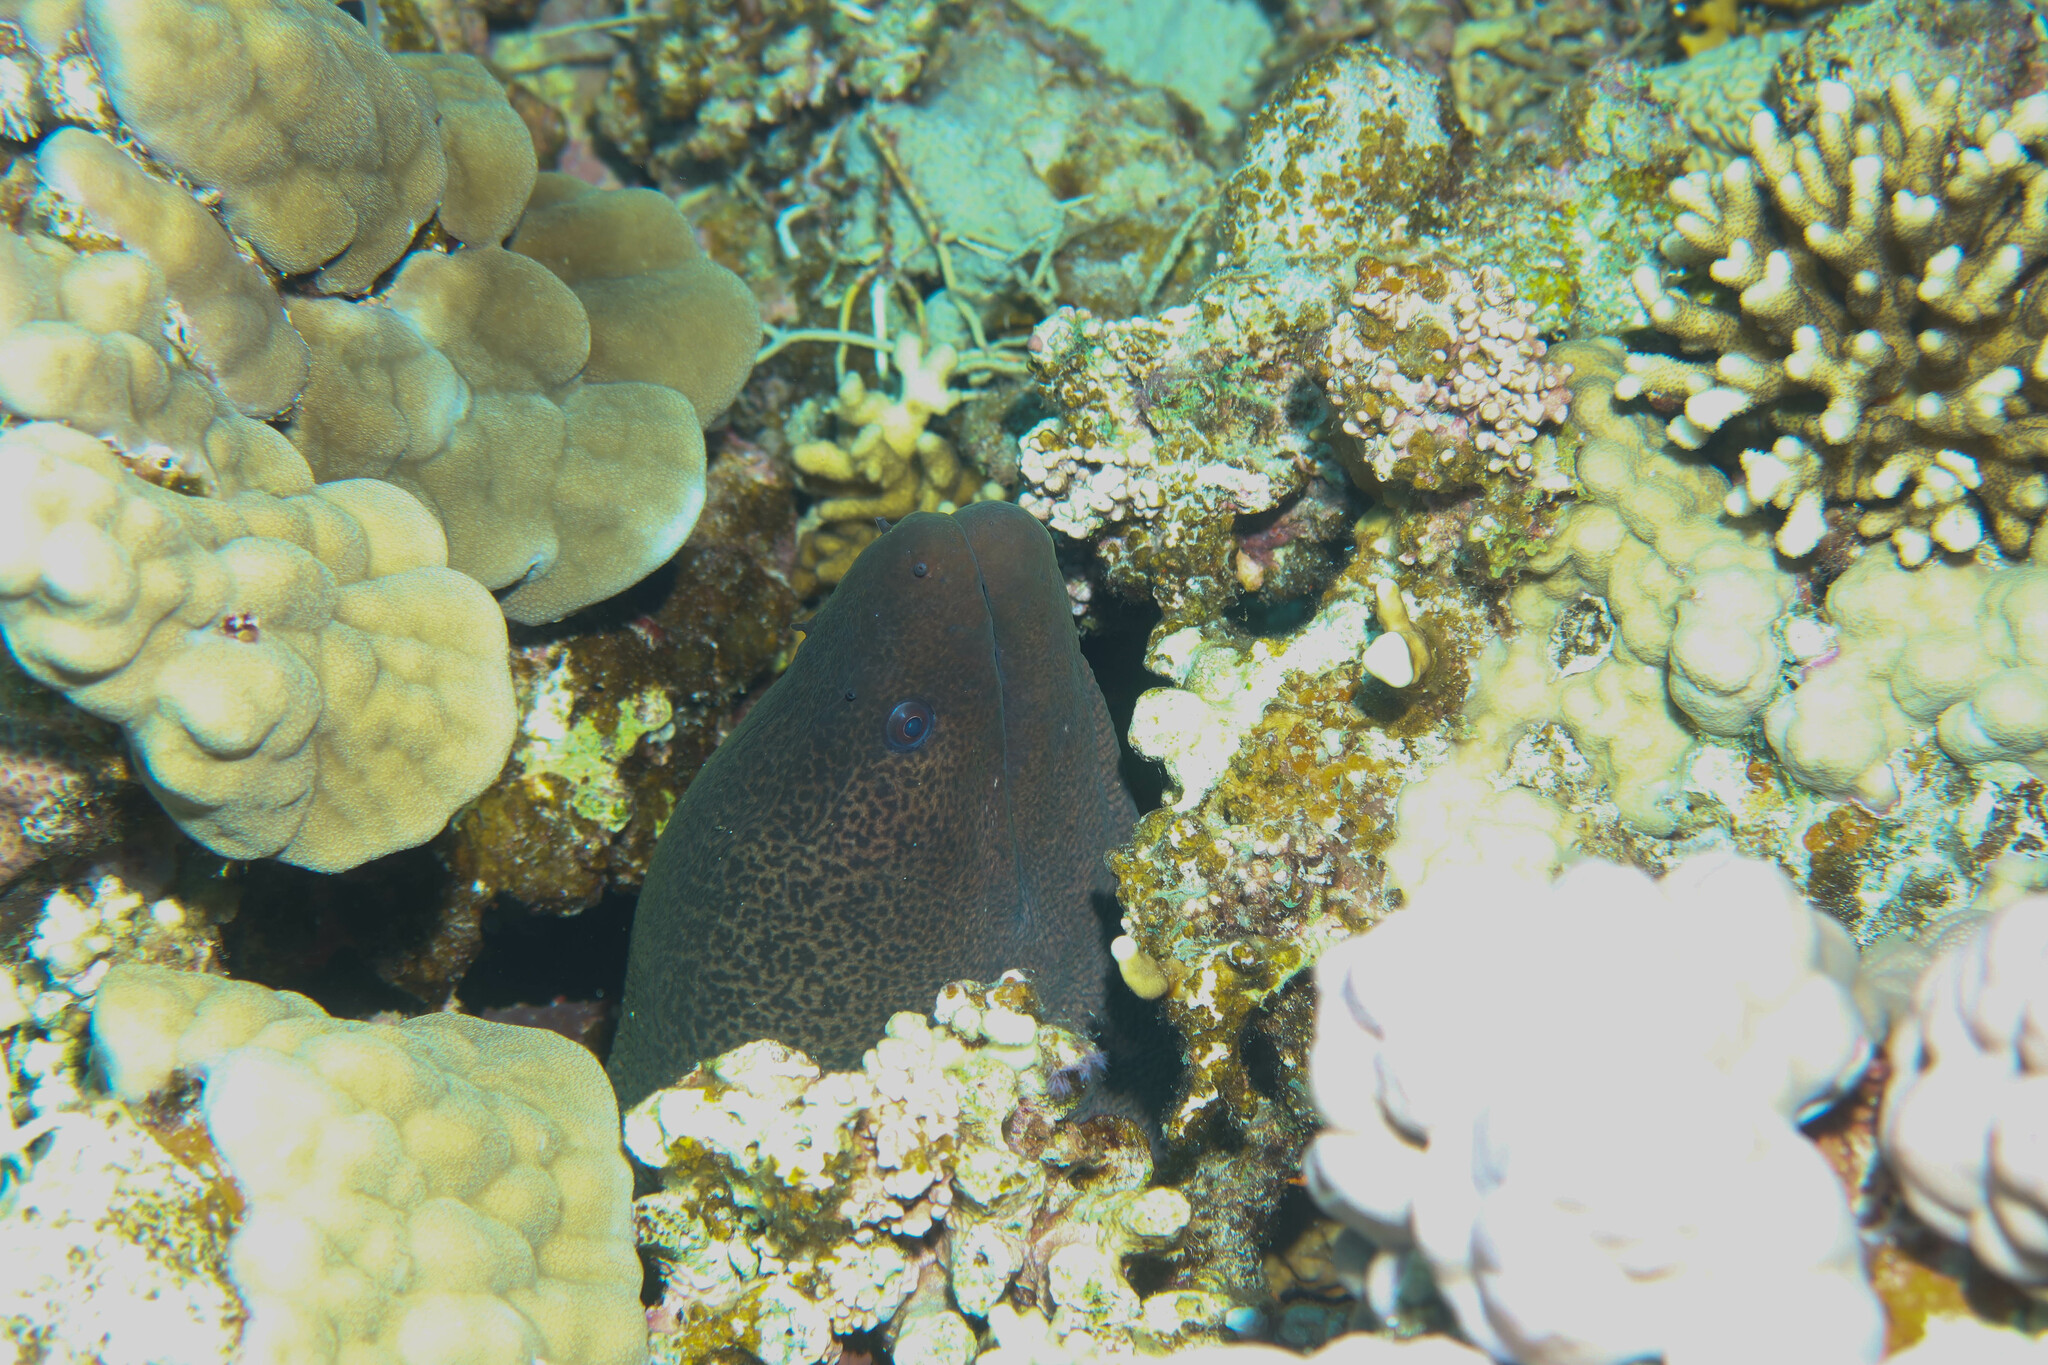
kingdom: Animalia
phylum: Chordata
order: Anguilliformes
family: Muraenidae
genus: Gymnothorax
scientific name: Gymnothorax javanicus
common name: Giant moray
